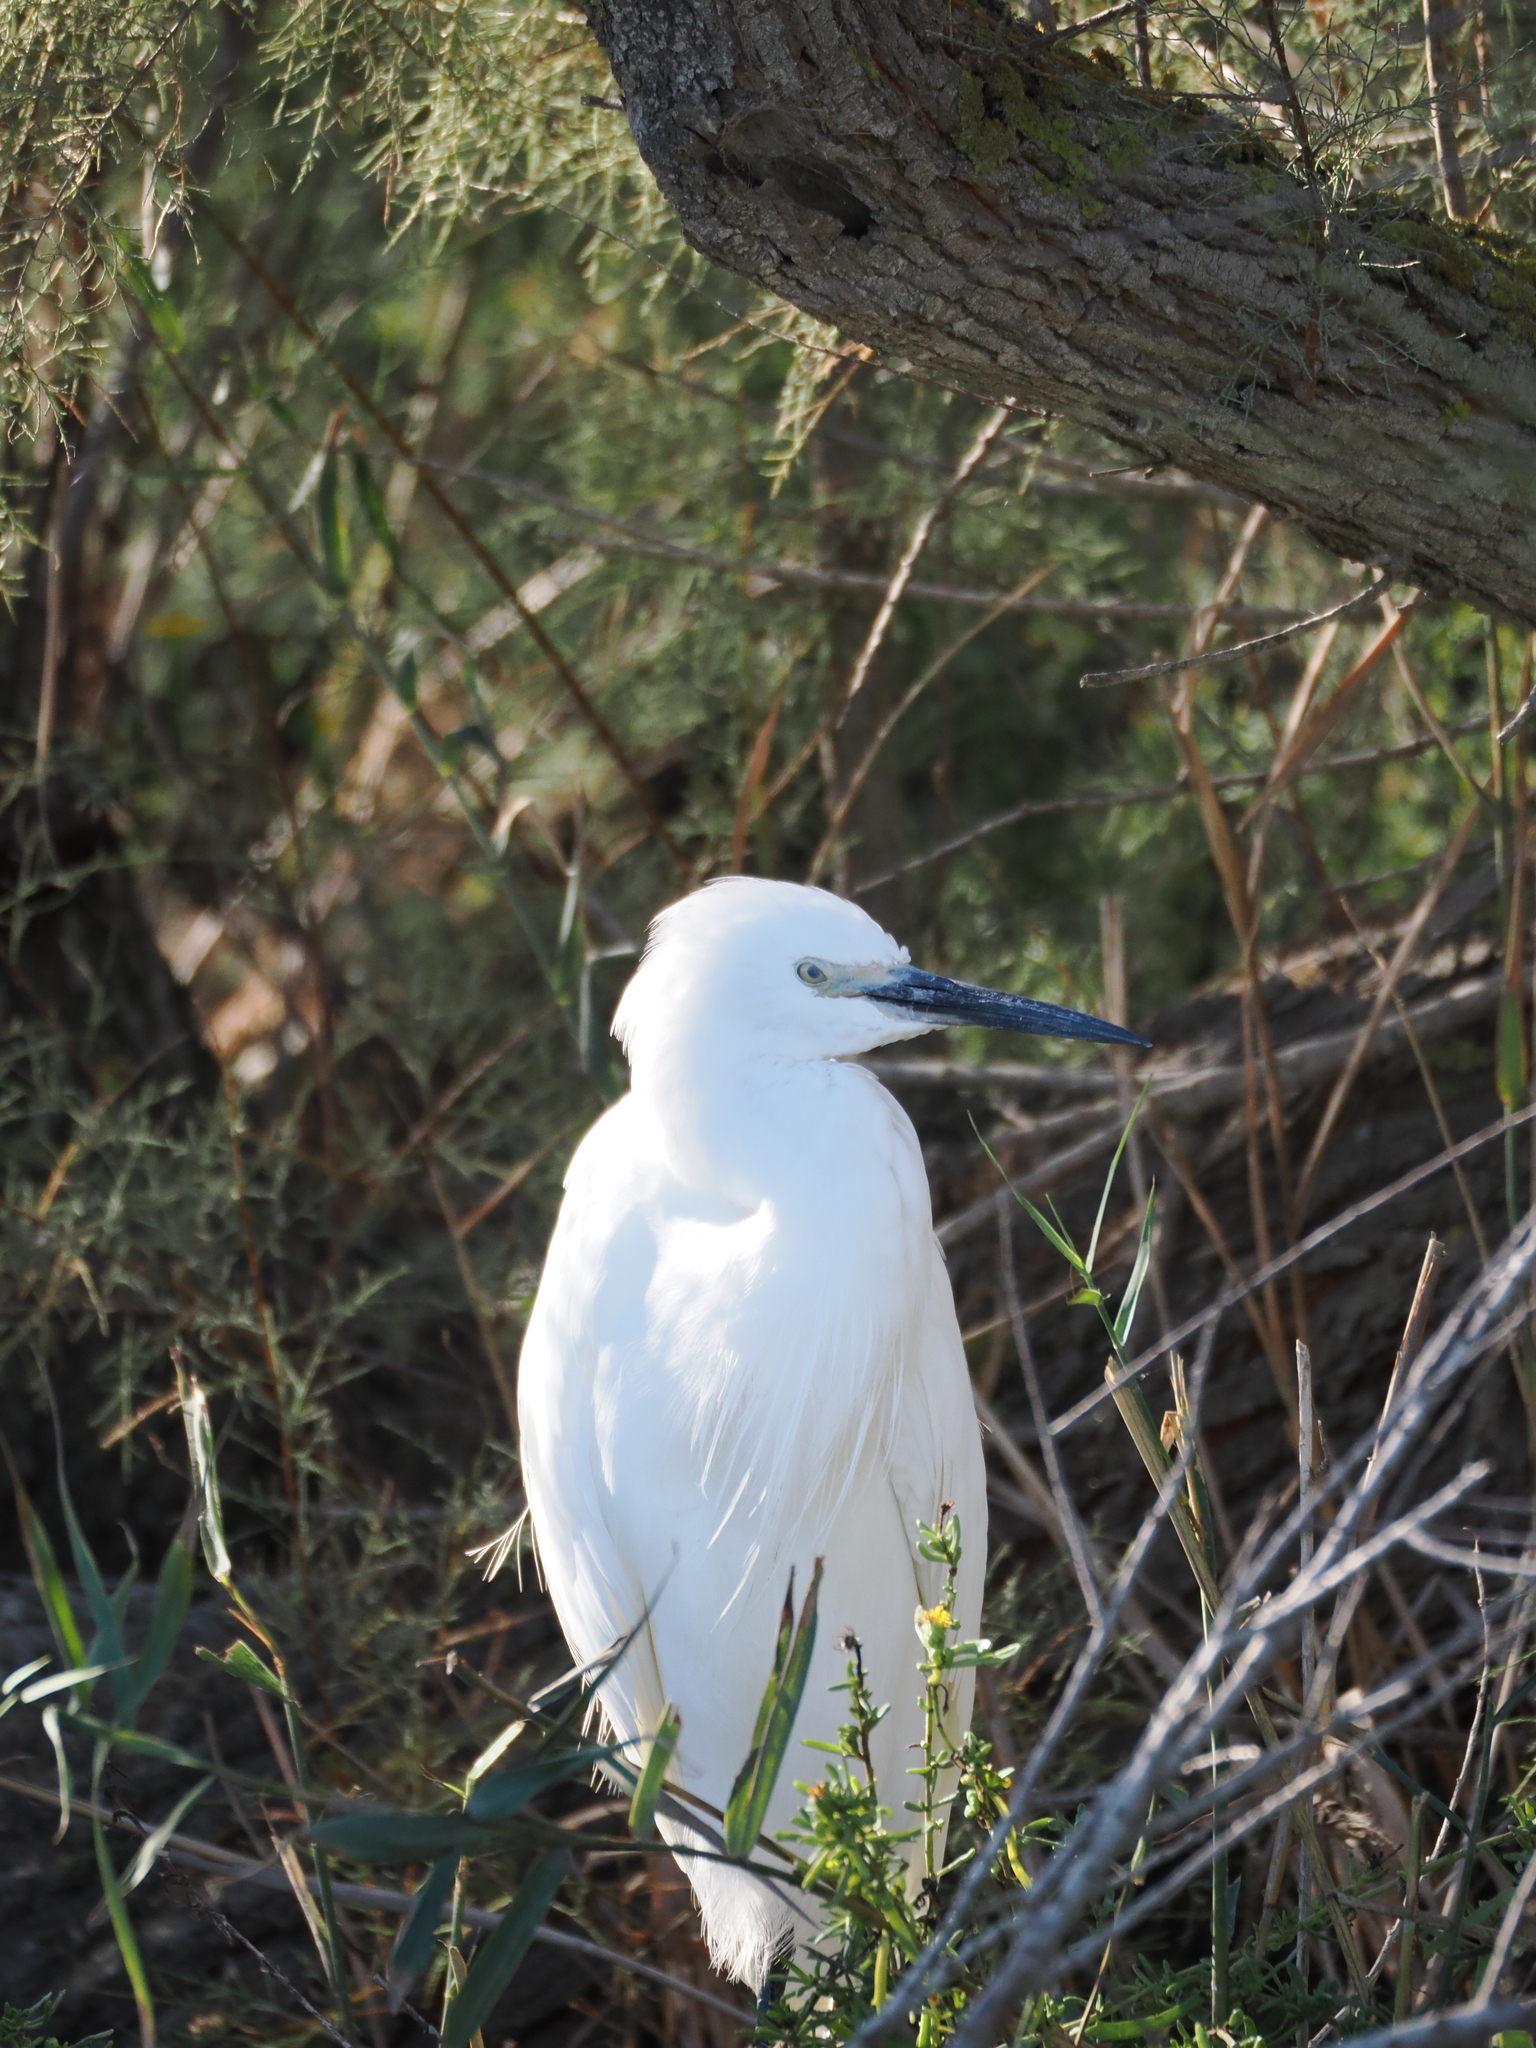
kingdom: Animalia
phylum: Chordata
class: Aves
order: Pelecaniformes
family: Ardeidae
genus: Egretta
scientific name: Egretta garzetta
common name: Little egret
